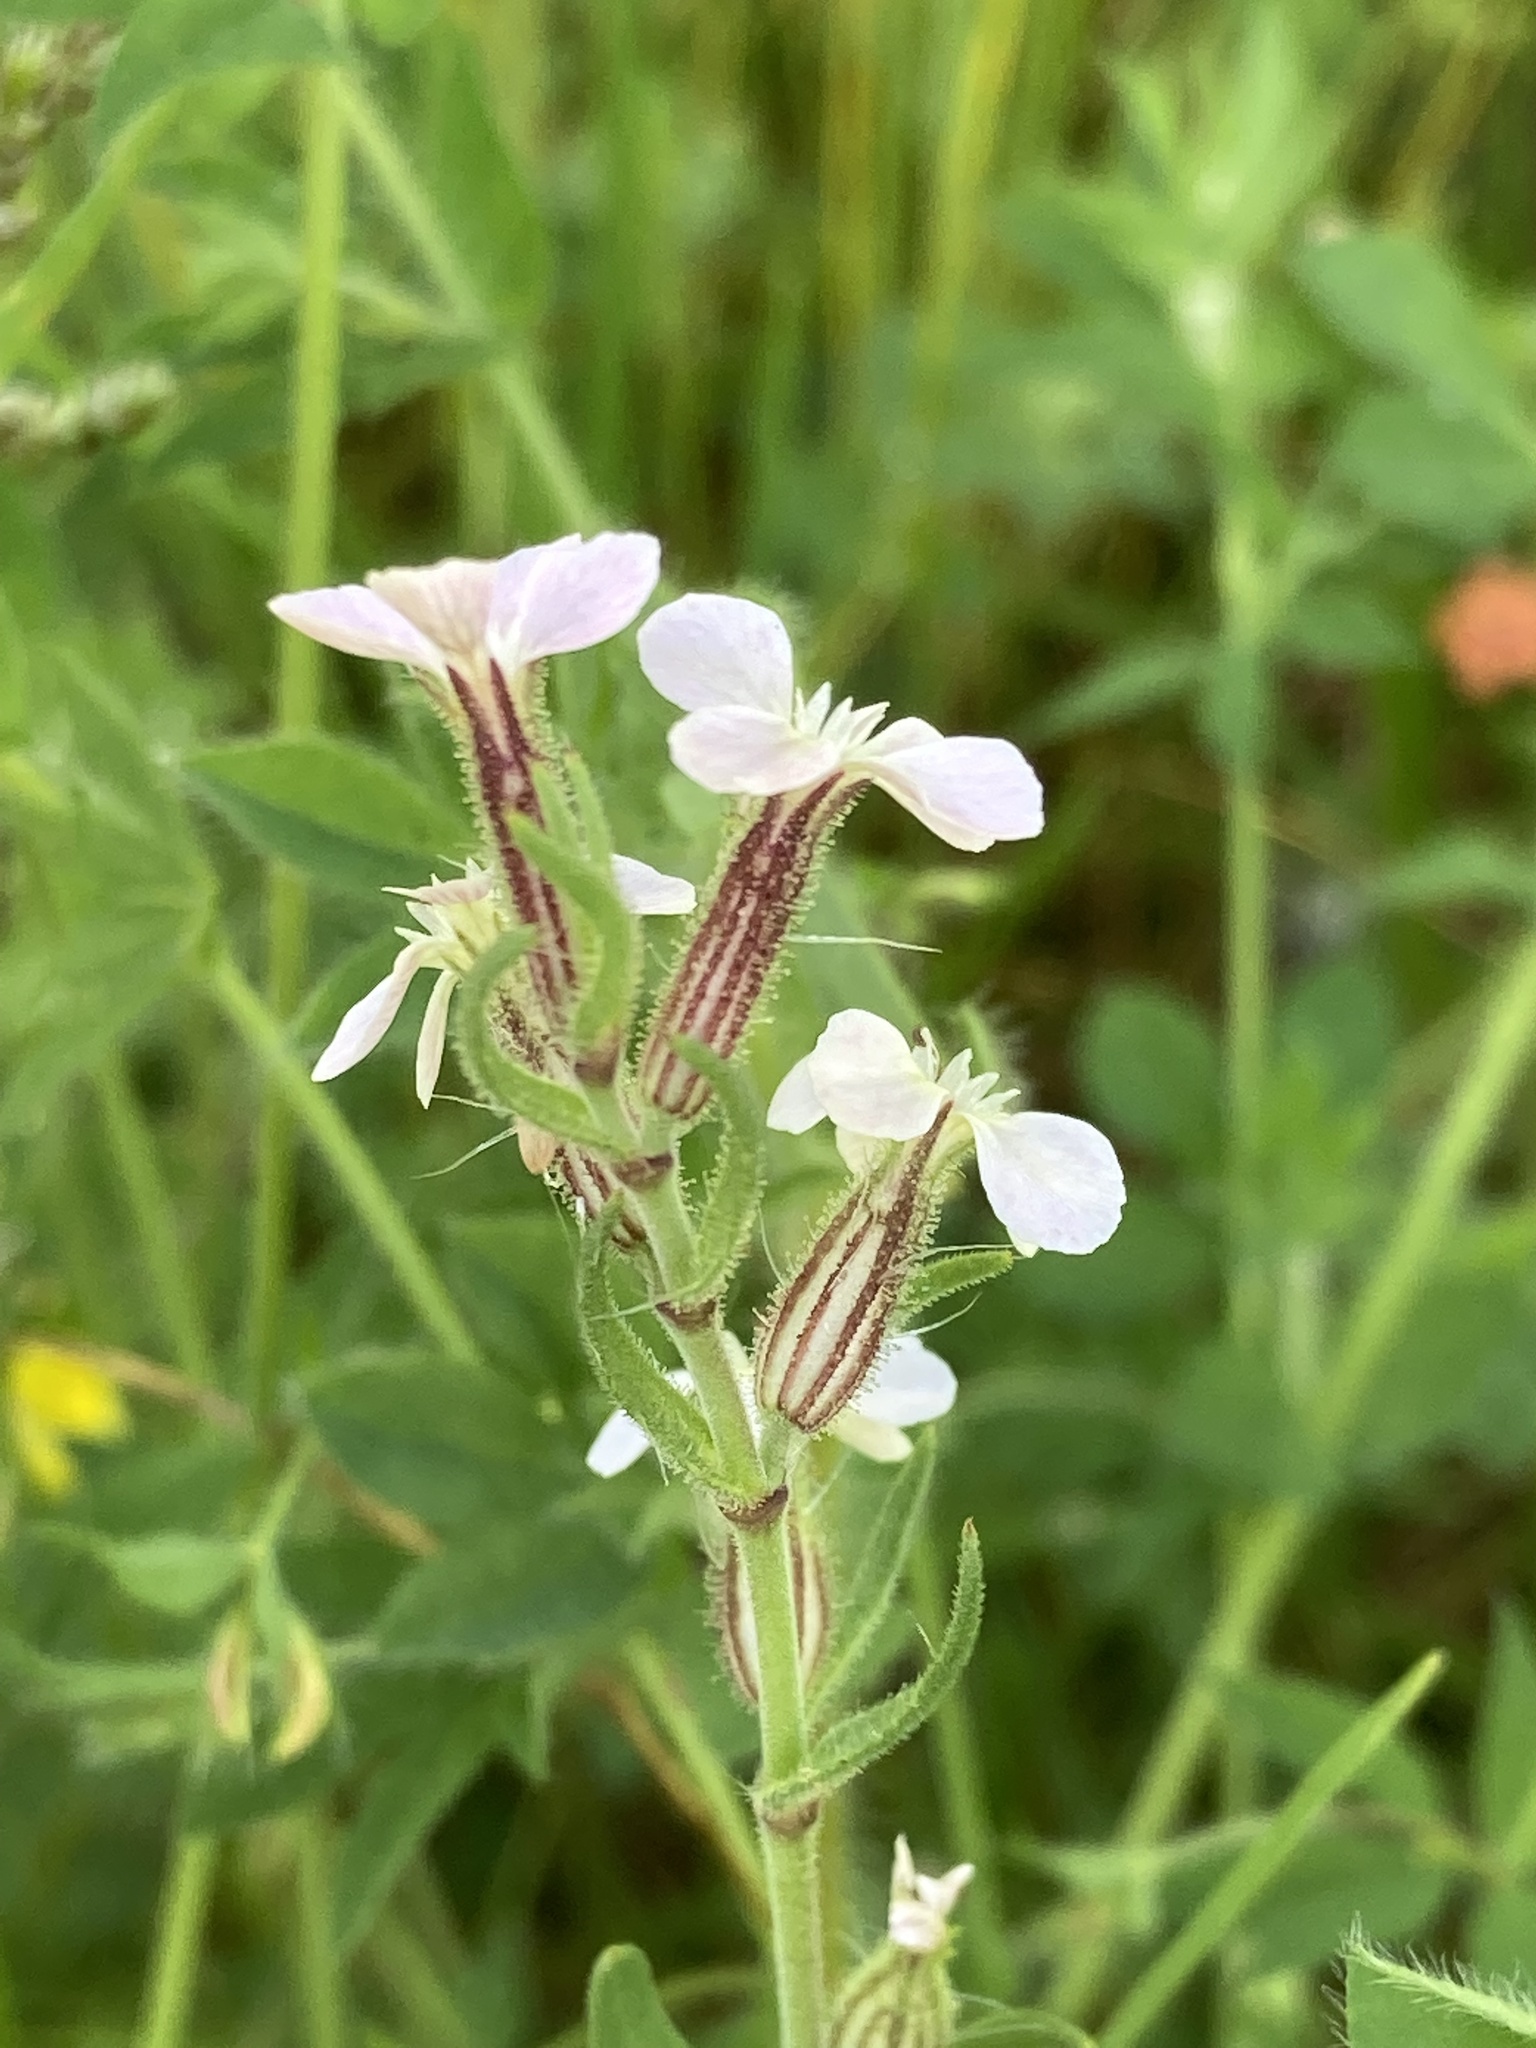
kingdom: Plantae
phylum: Tracheophyta
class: Magnoliopsida
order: Caryophyllales
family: Caryophyllaceae
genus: Silene
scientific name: Silene gallica
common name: Small-flowered catchfly
